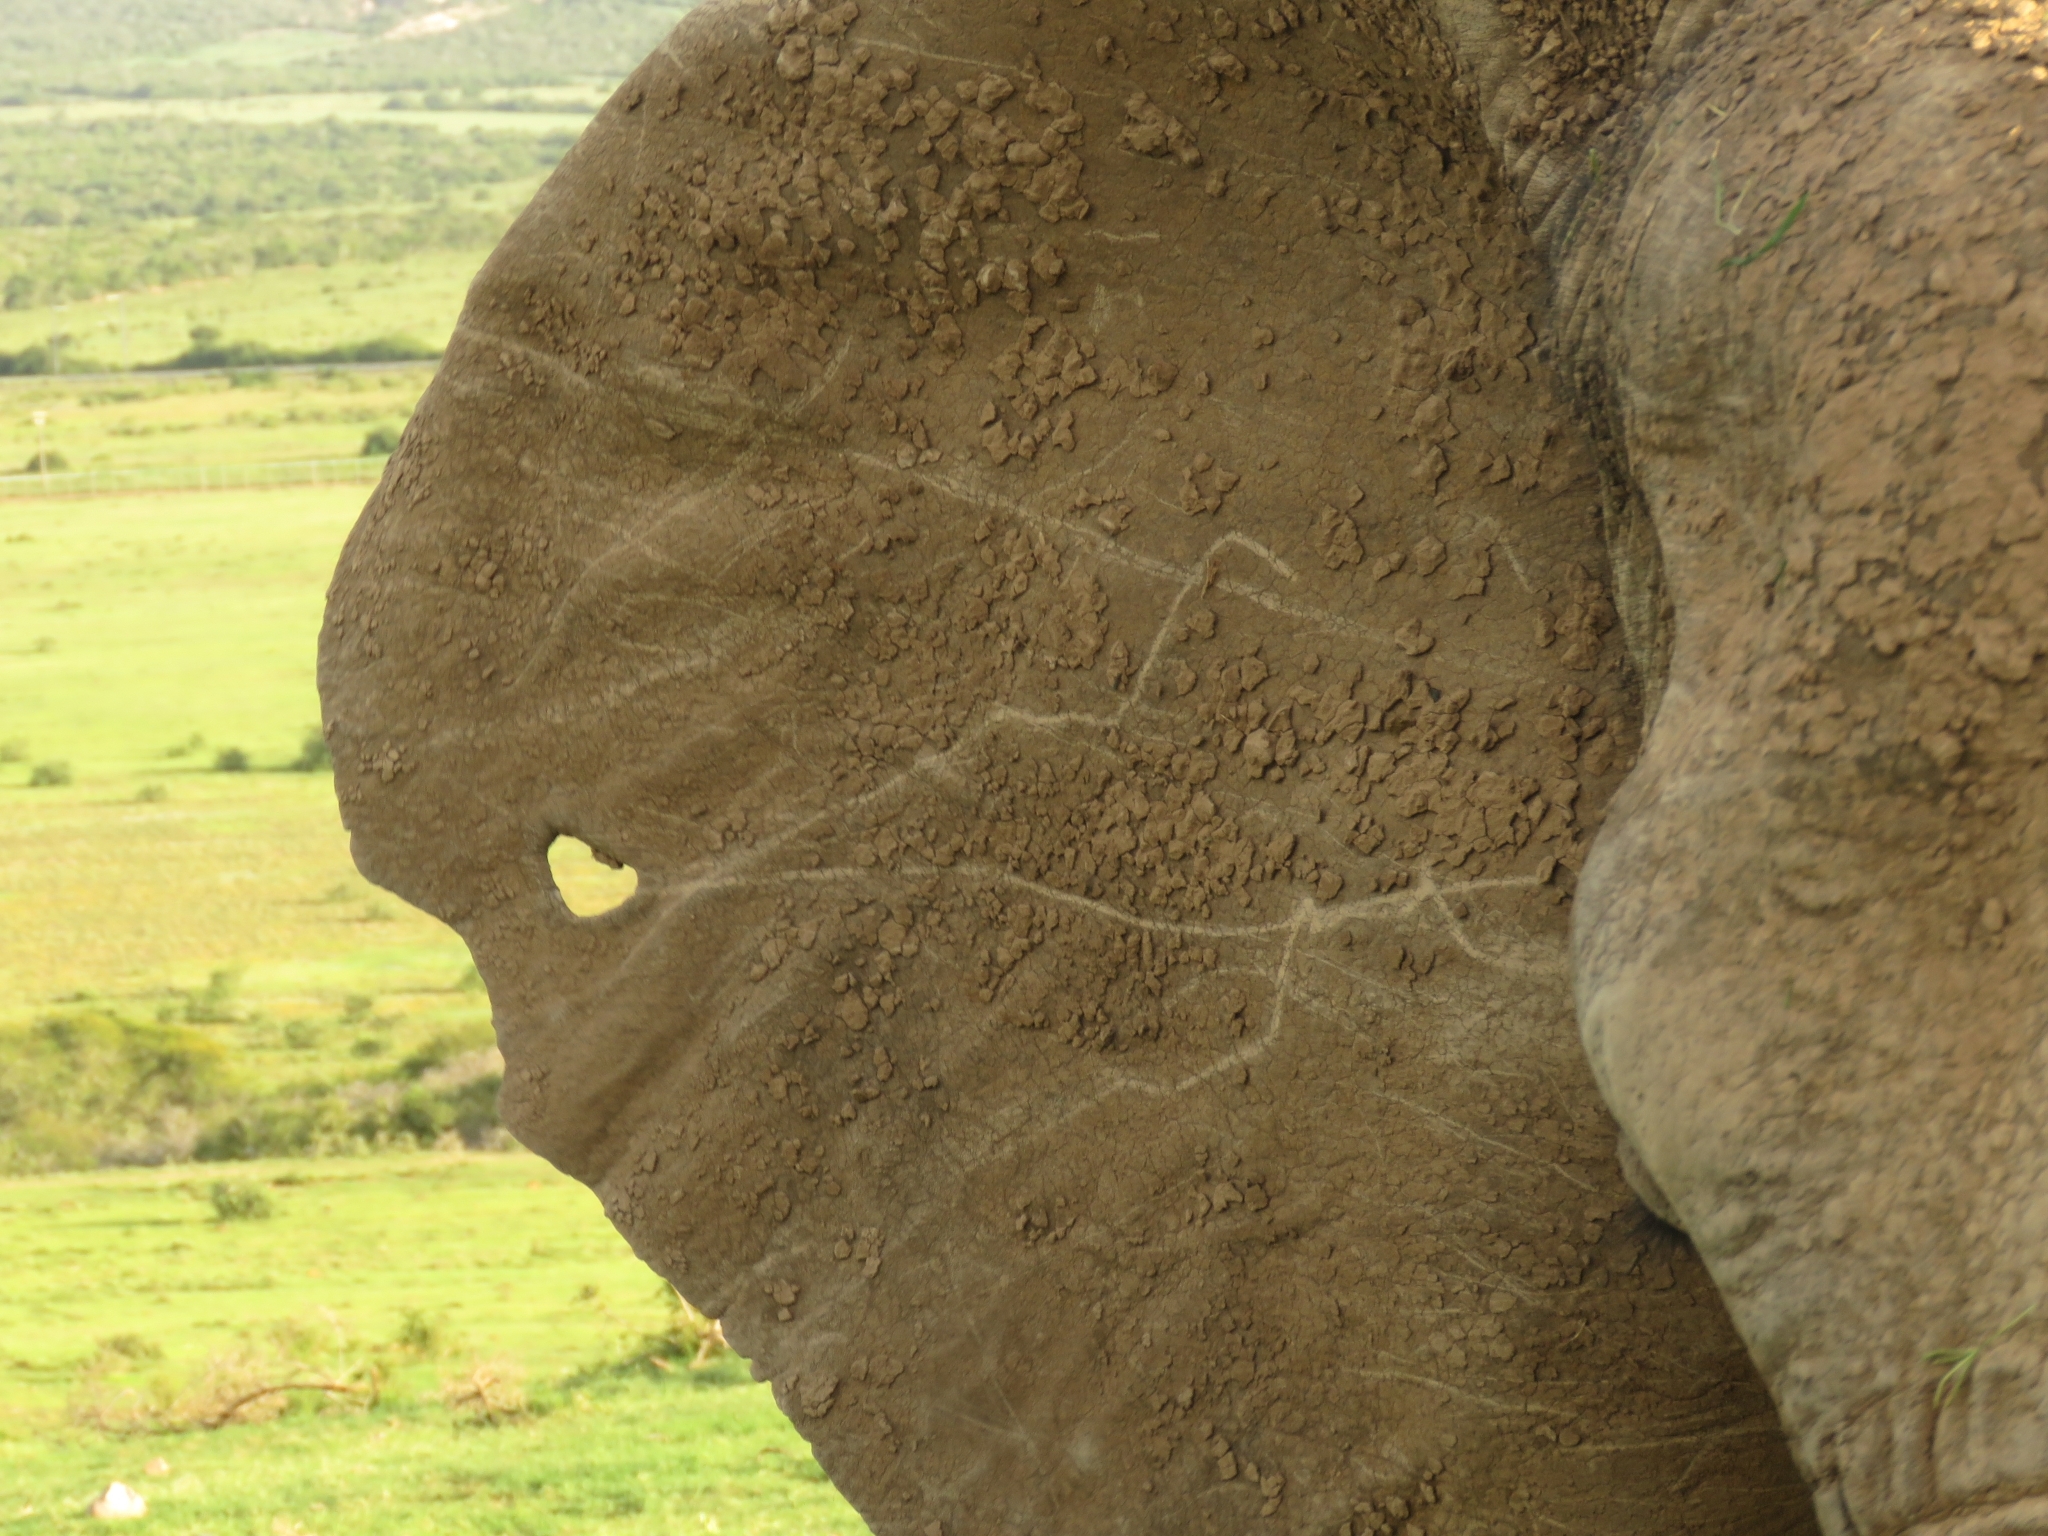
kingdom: Animalia
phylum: Chordata
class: Mammalia
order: Proboscidea
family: Elephantidae
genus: Loxodonta
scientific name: Loxodonta africana
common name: African elephant
